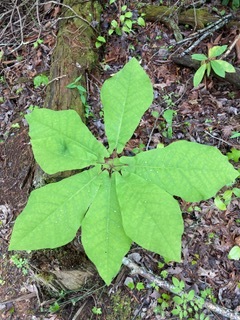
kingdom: Plantae
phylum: Tracheophyta
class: Magnoliopsida
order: Magnoliales
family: Magnoliaceae
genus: Magnolia
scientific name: Magnolia fraseri
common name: Fraser's magnolia
